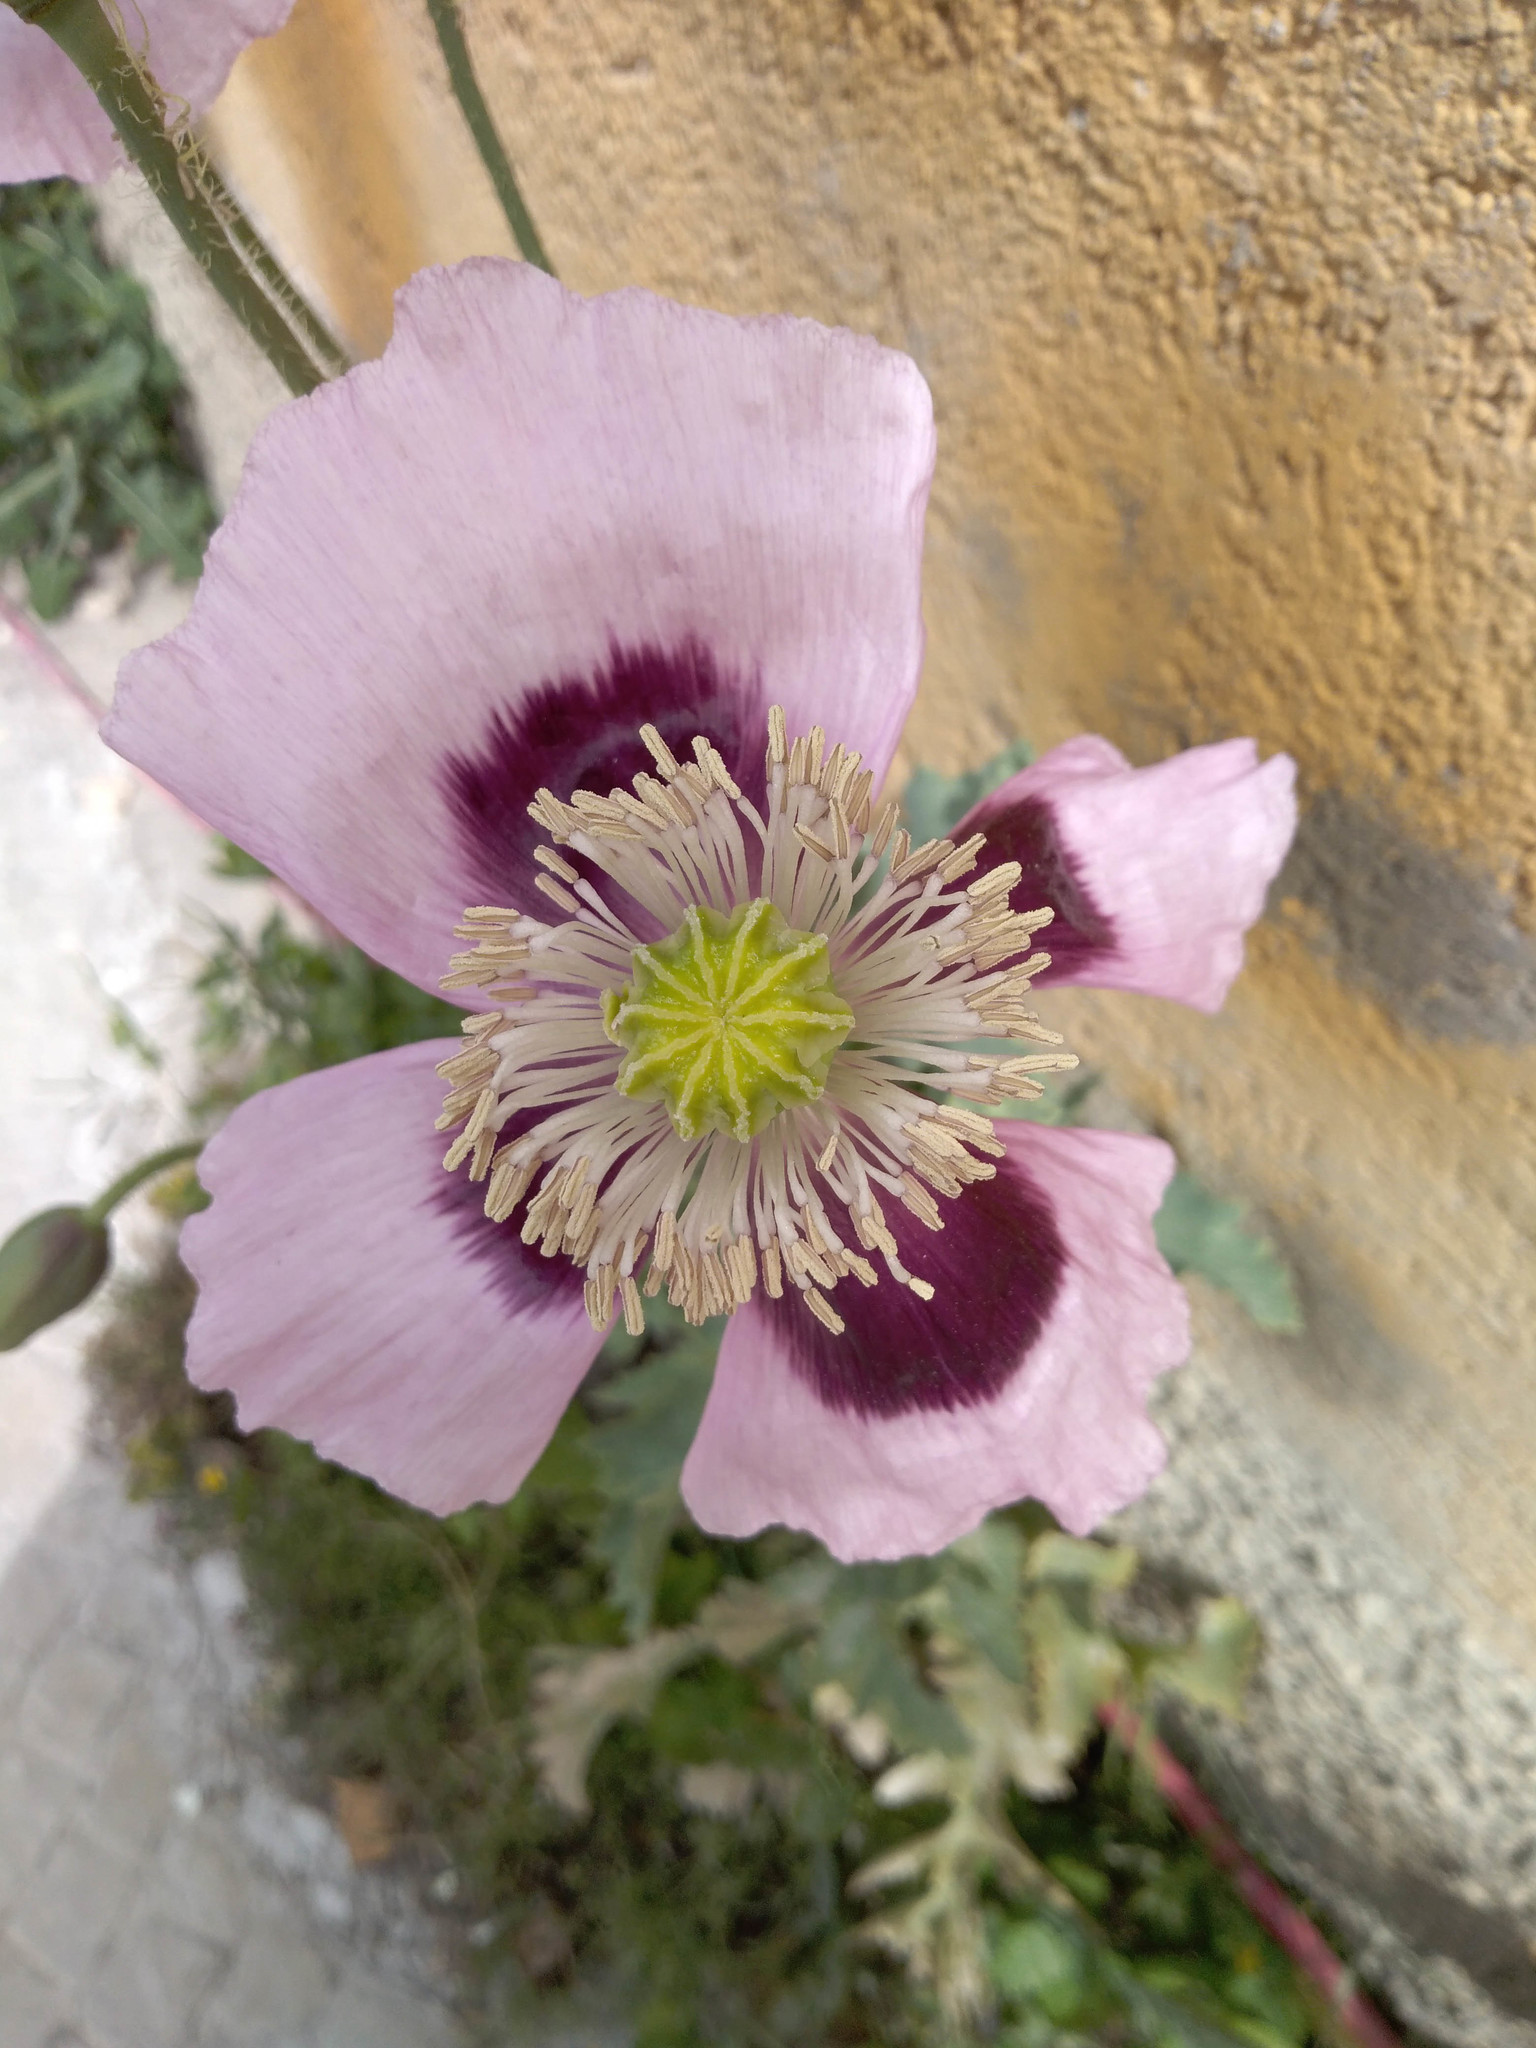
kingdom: Plantae
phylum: Tracheophyta
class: Magnoliopsida
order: Ranunculales
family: Papaveraceae
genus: Papaver
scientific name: Papaver somniferum
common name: Opium poppy
